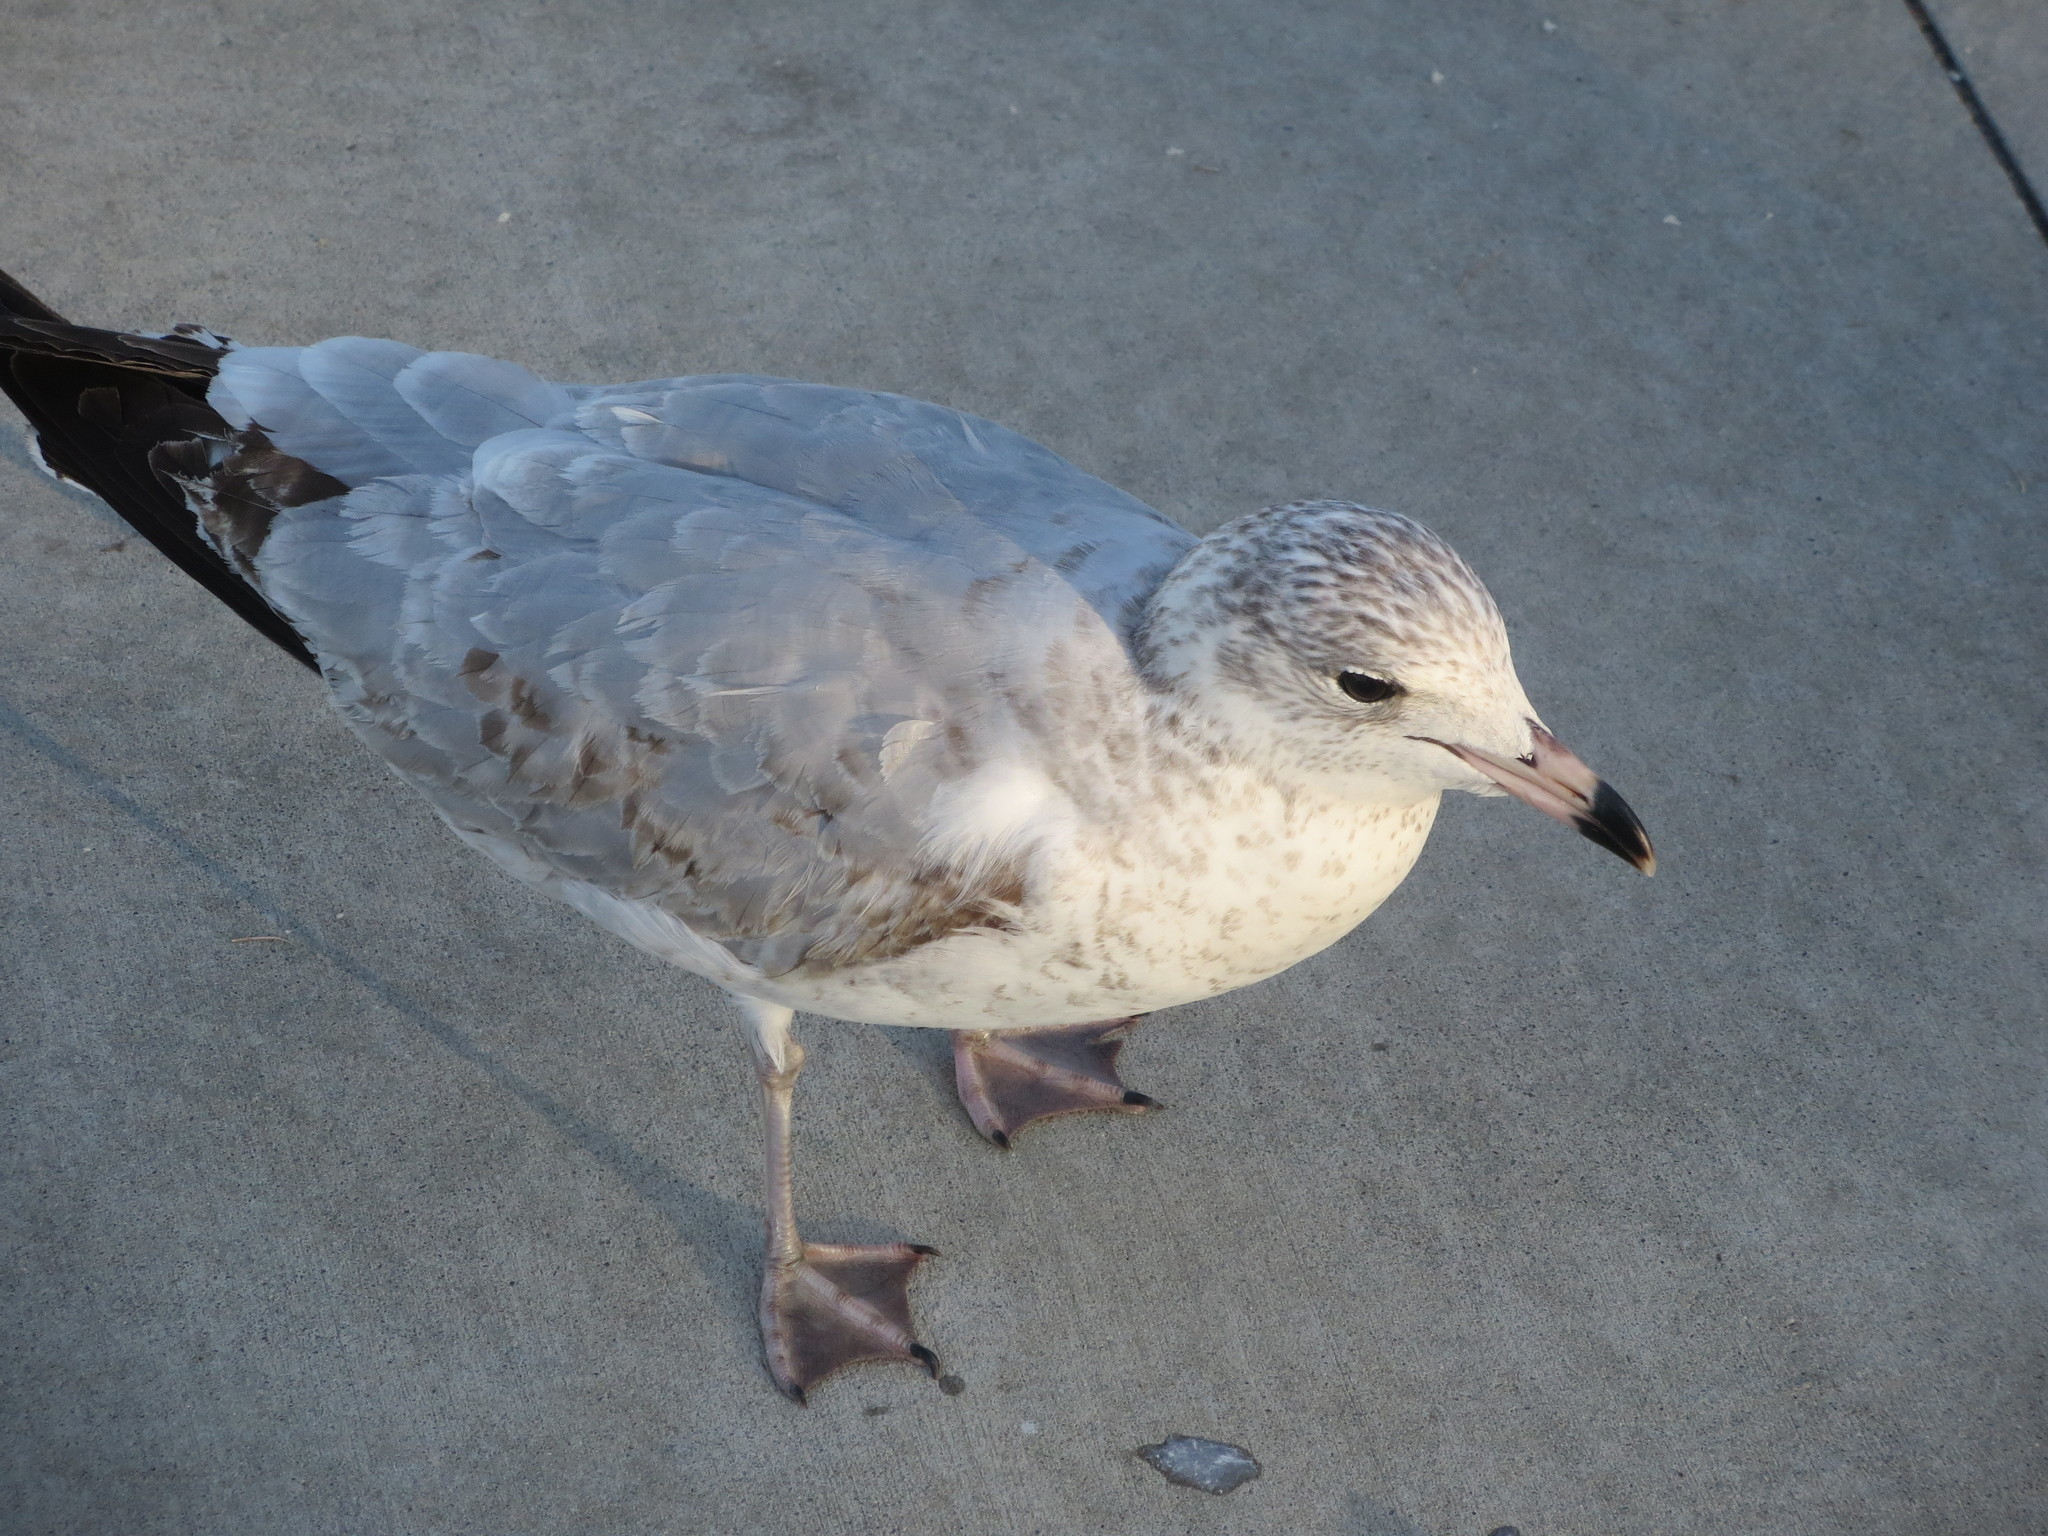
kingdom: Animalia
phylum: Chordata
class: Aves
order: Charadriiformes
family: Laridae
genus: Larus
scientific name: Larus delawarensis
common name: Ring-billed gull
